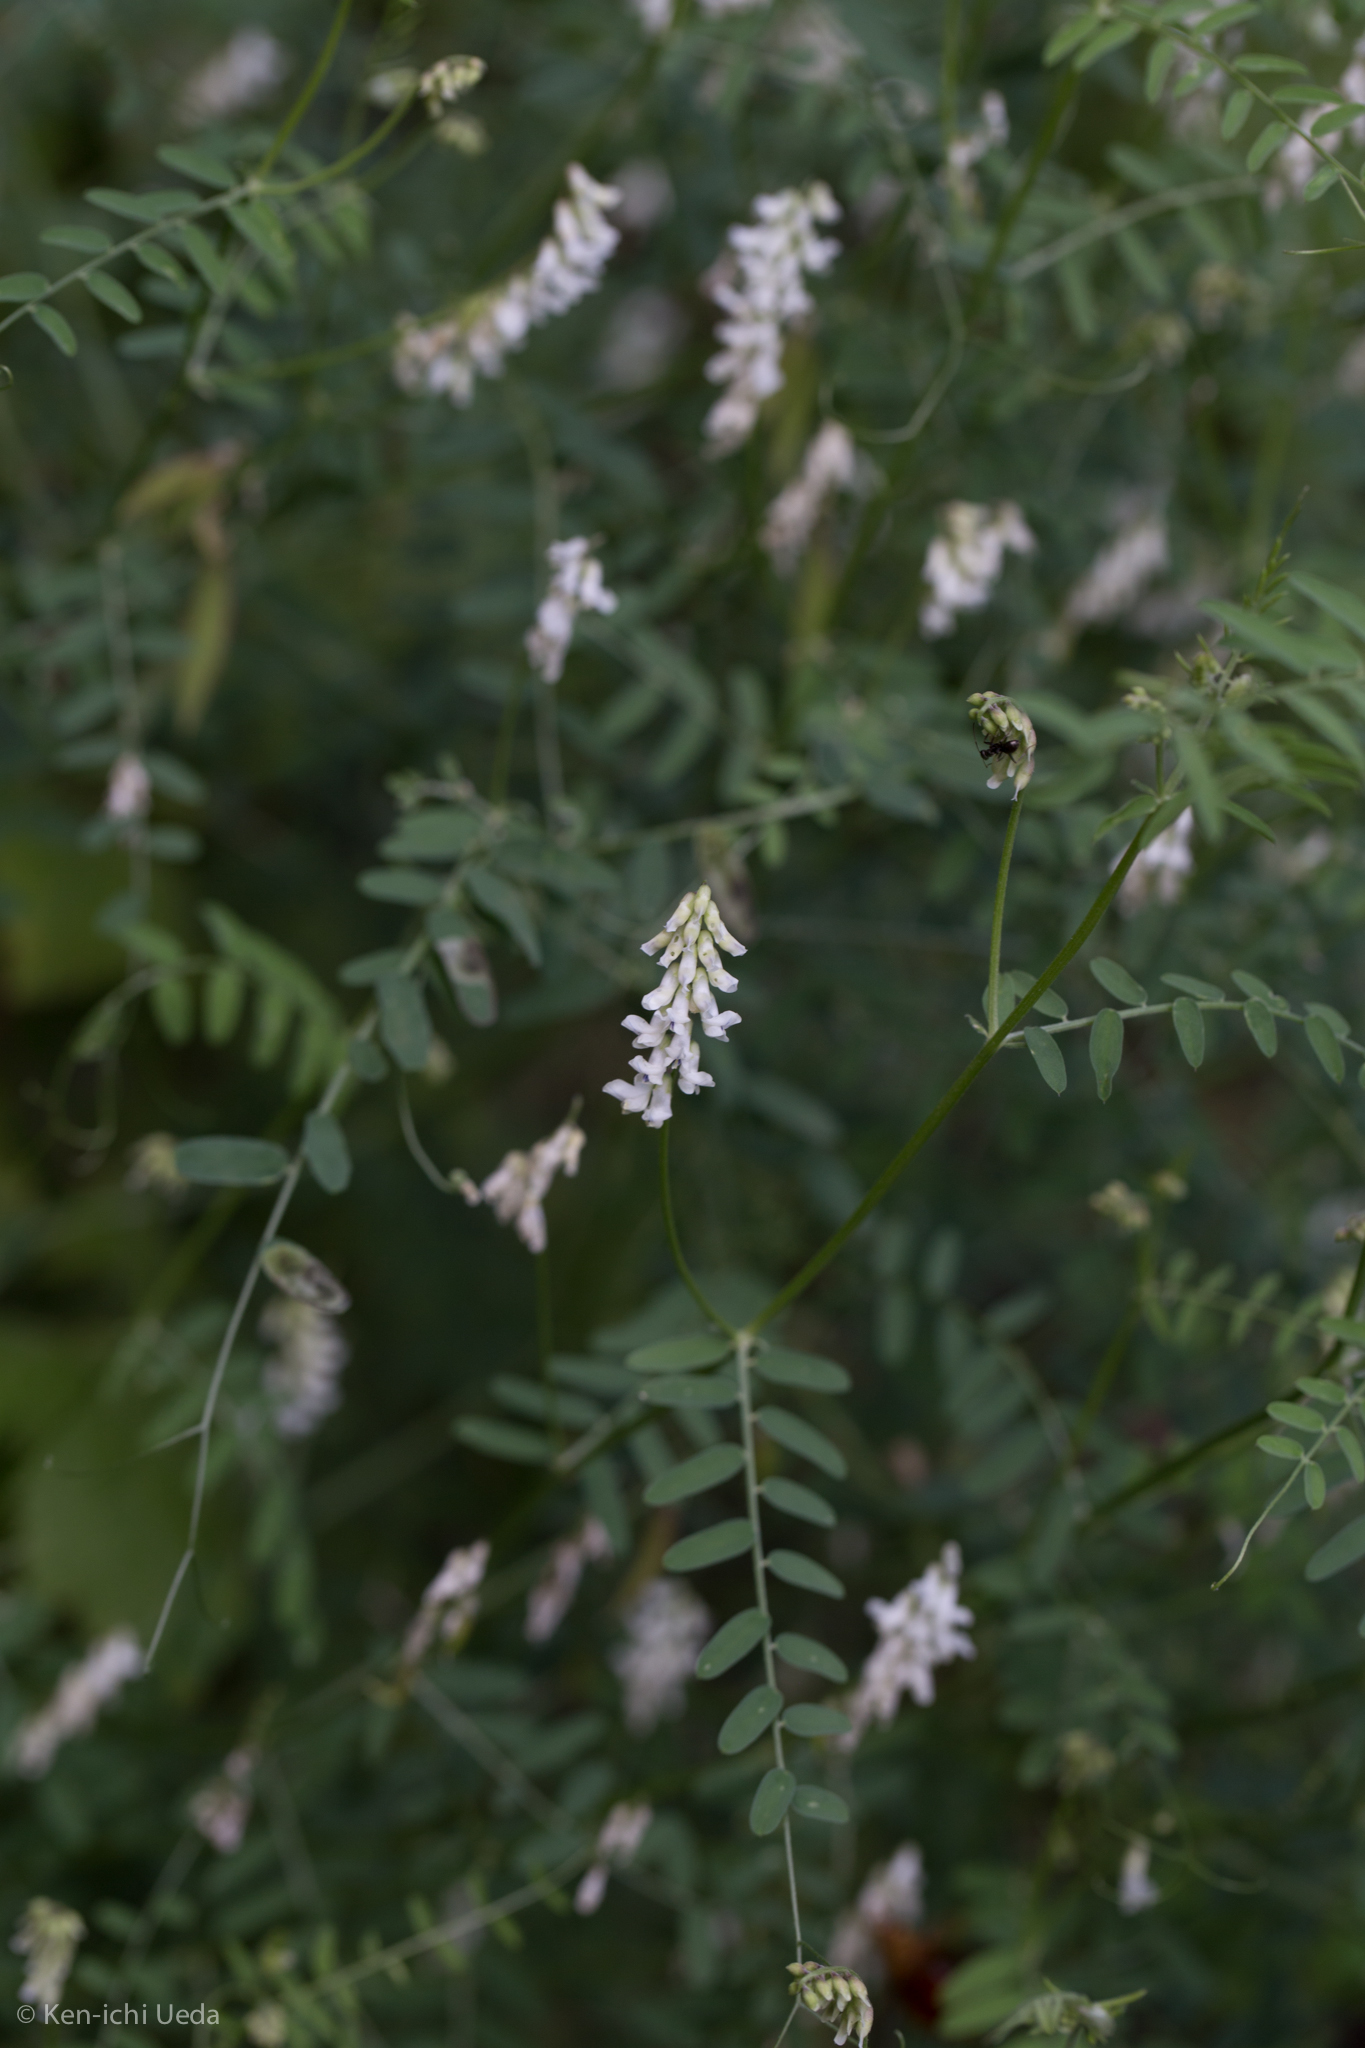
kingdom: Plantae
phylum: Tracheophyta
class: Magnoliopsida
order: Fabales
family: Fabaceae
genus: Vicia
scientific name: Vicia pulchella
